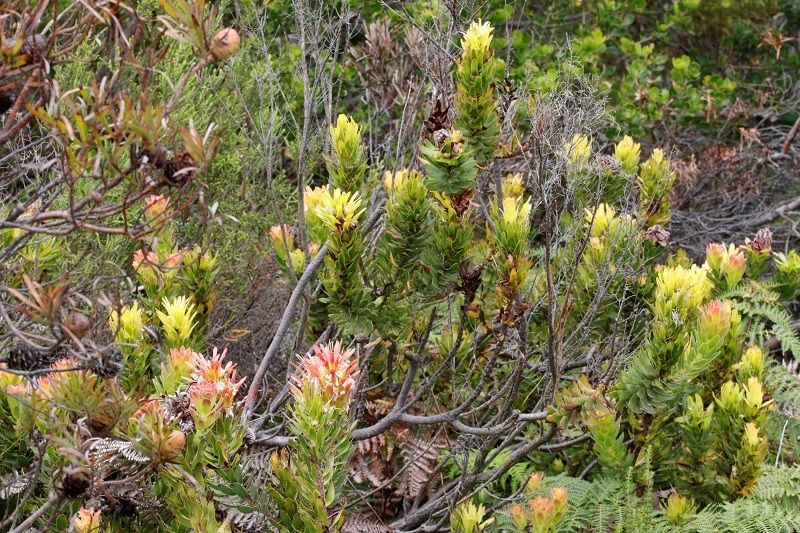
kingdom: Plantae
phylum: Tracheophyta
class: Magnoliopsida
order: Proteales
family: Proteaceae
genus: Mimetes
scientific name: Mimetes cucullatus
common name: Common pagoda
